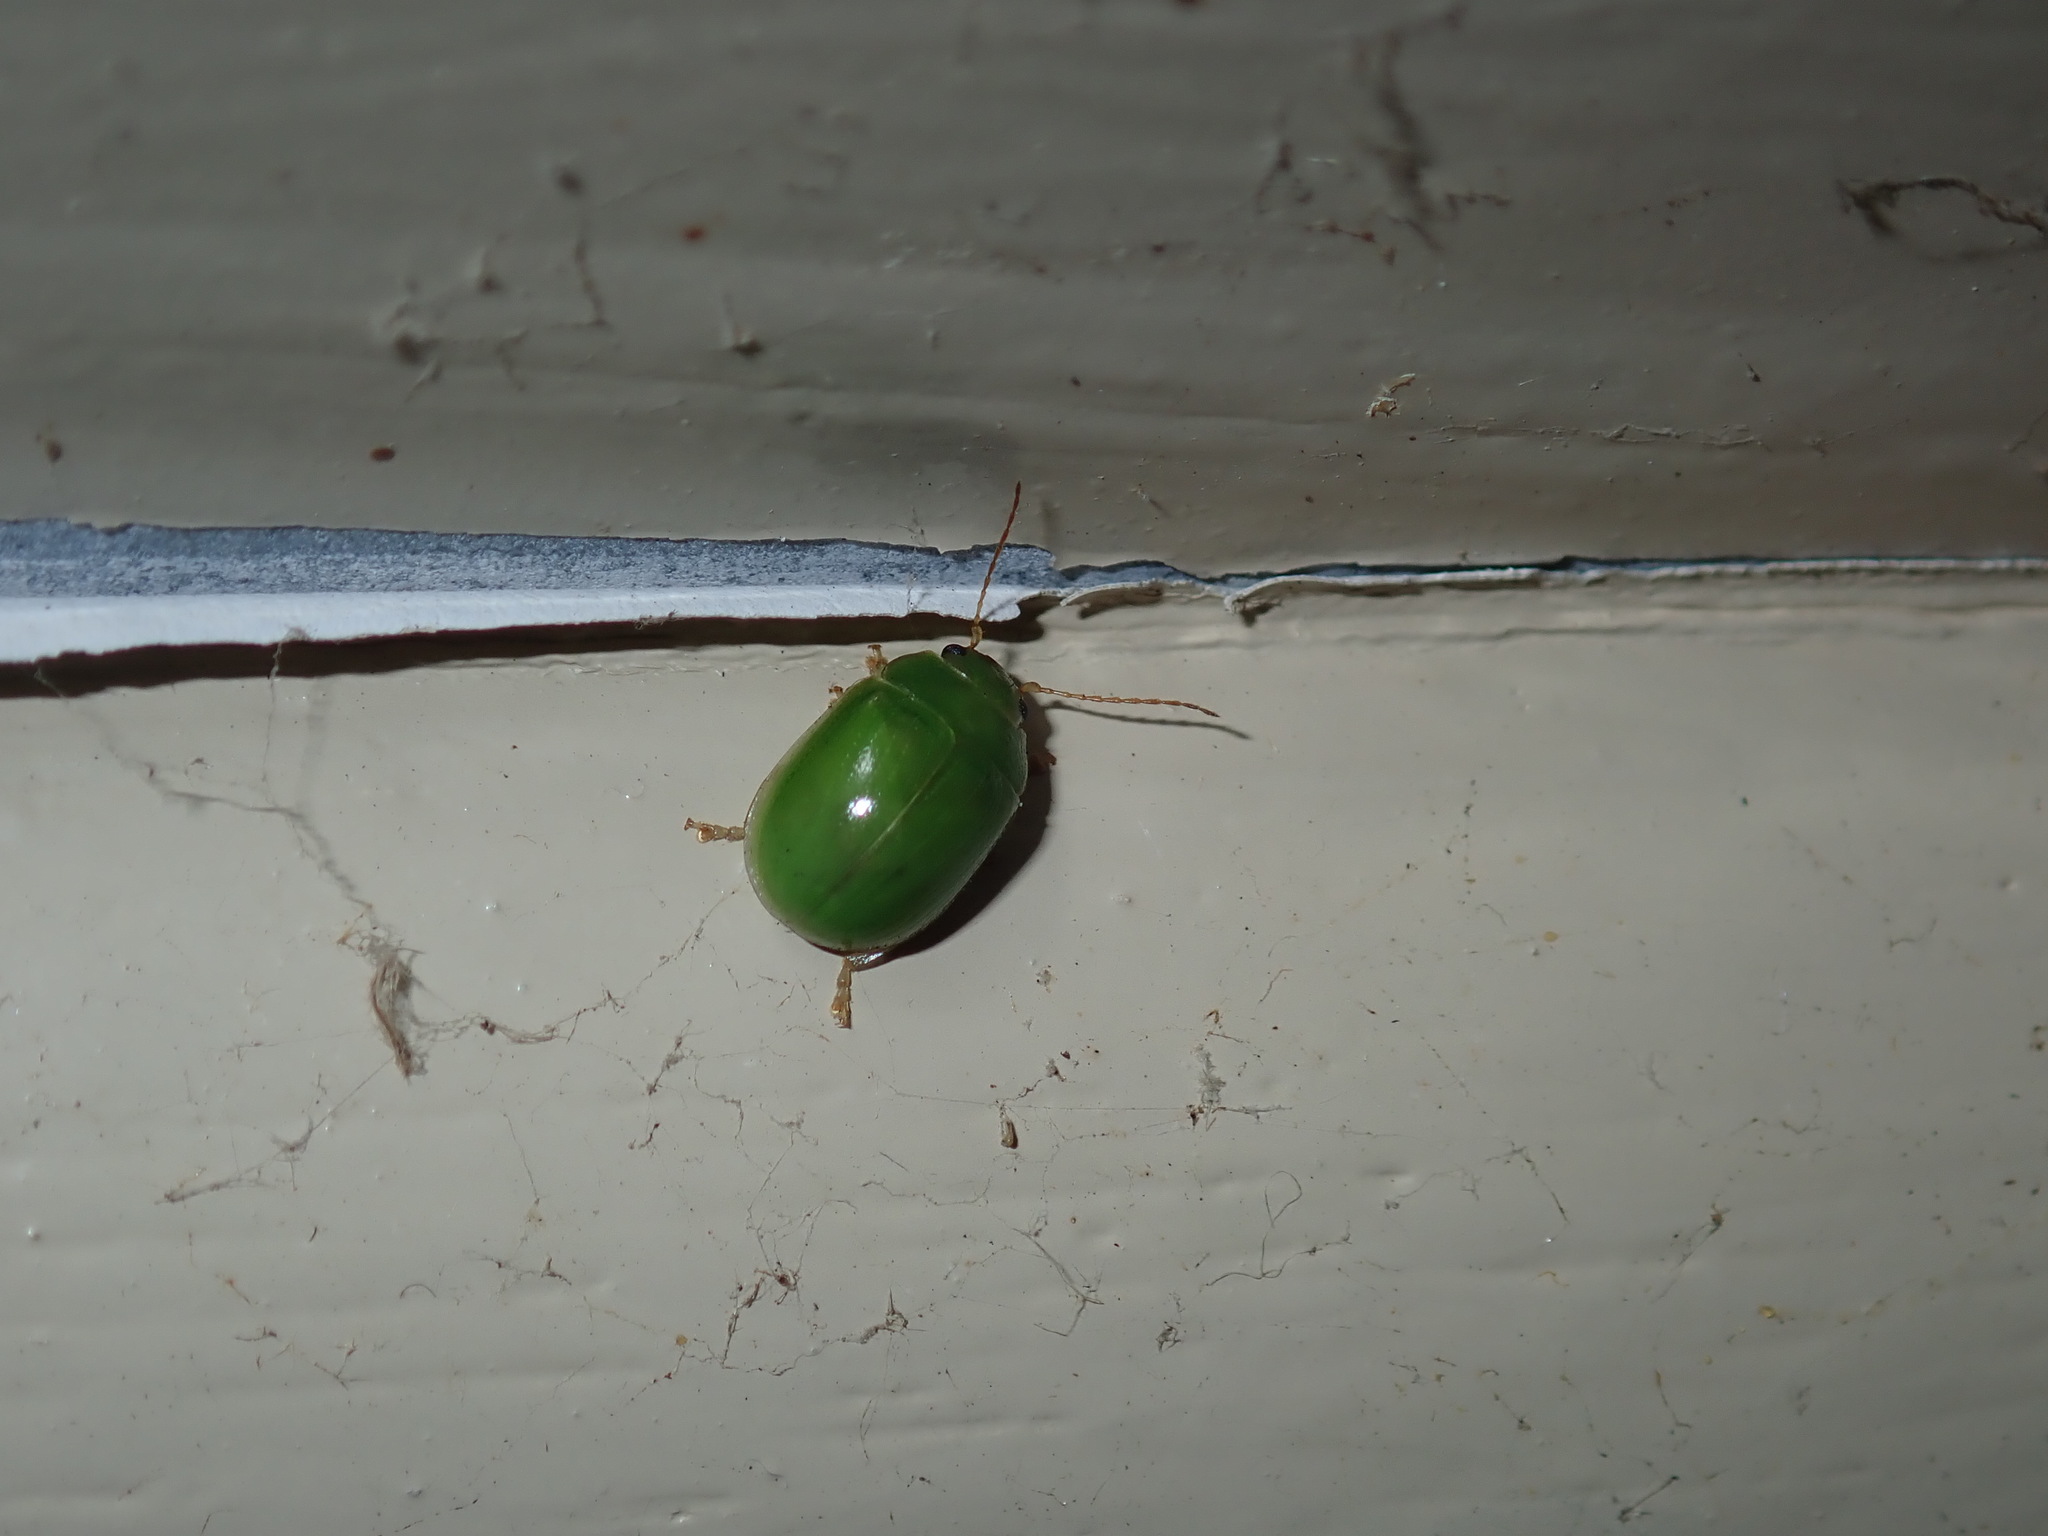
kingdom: Animalia
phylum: Arthropoda
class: Insecta
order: Coleoptera
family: Chrysomelidae
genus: Paropsides
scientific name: Paropsides
